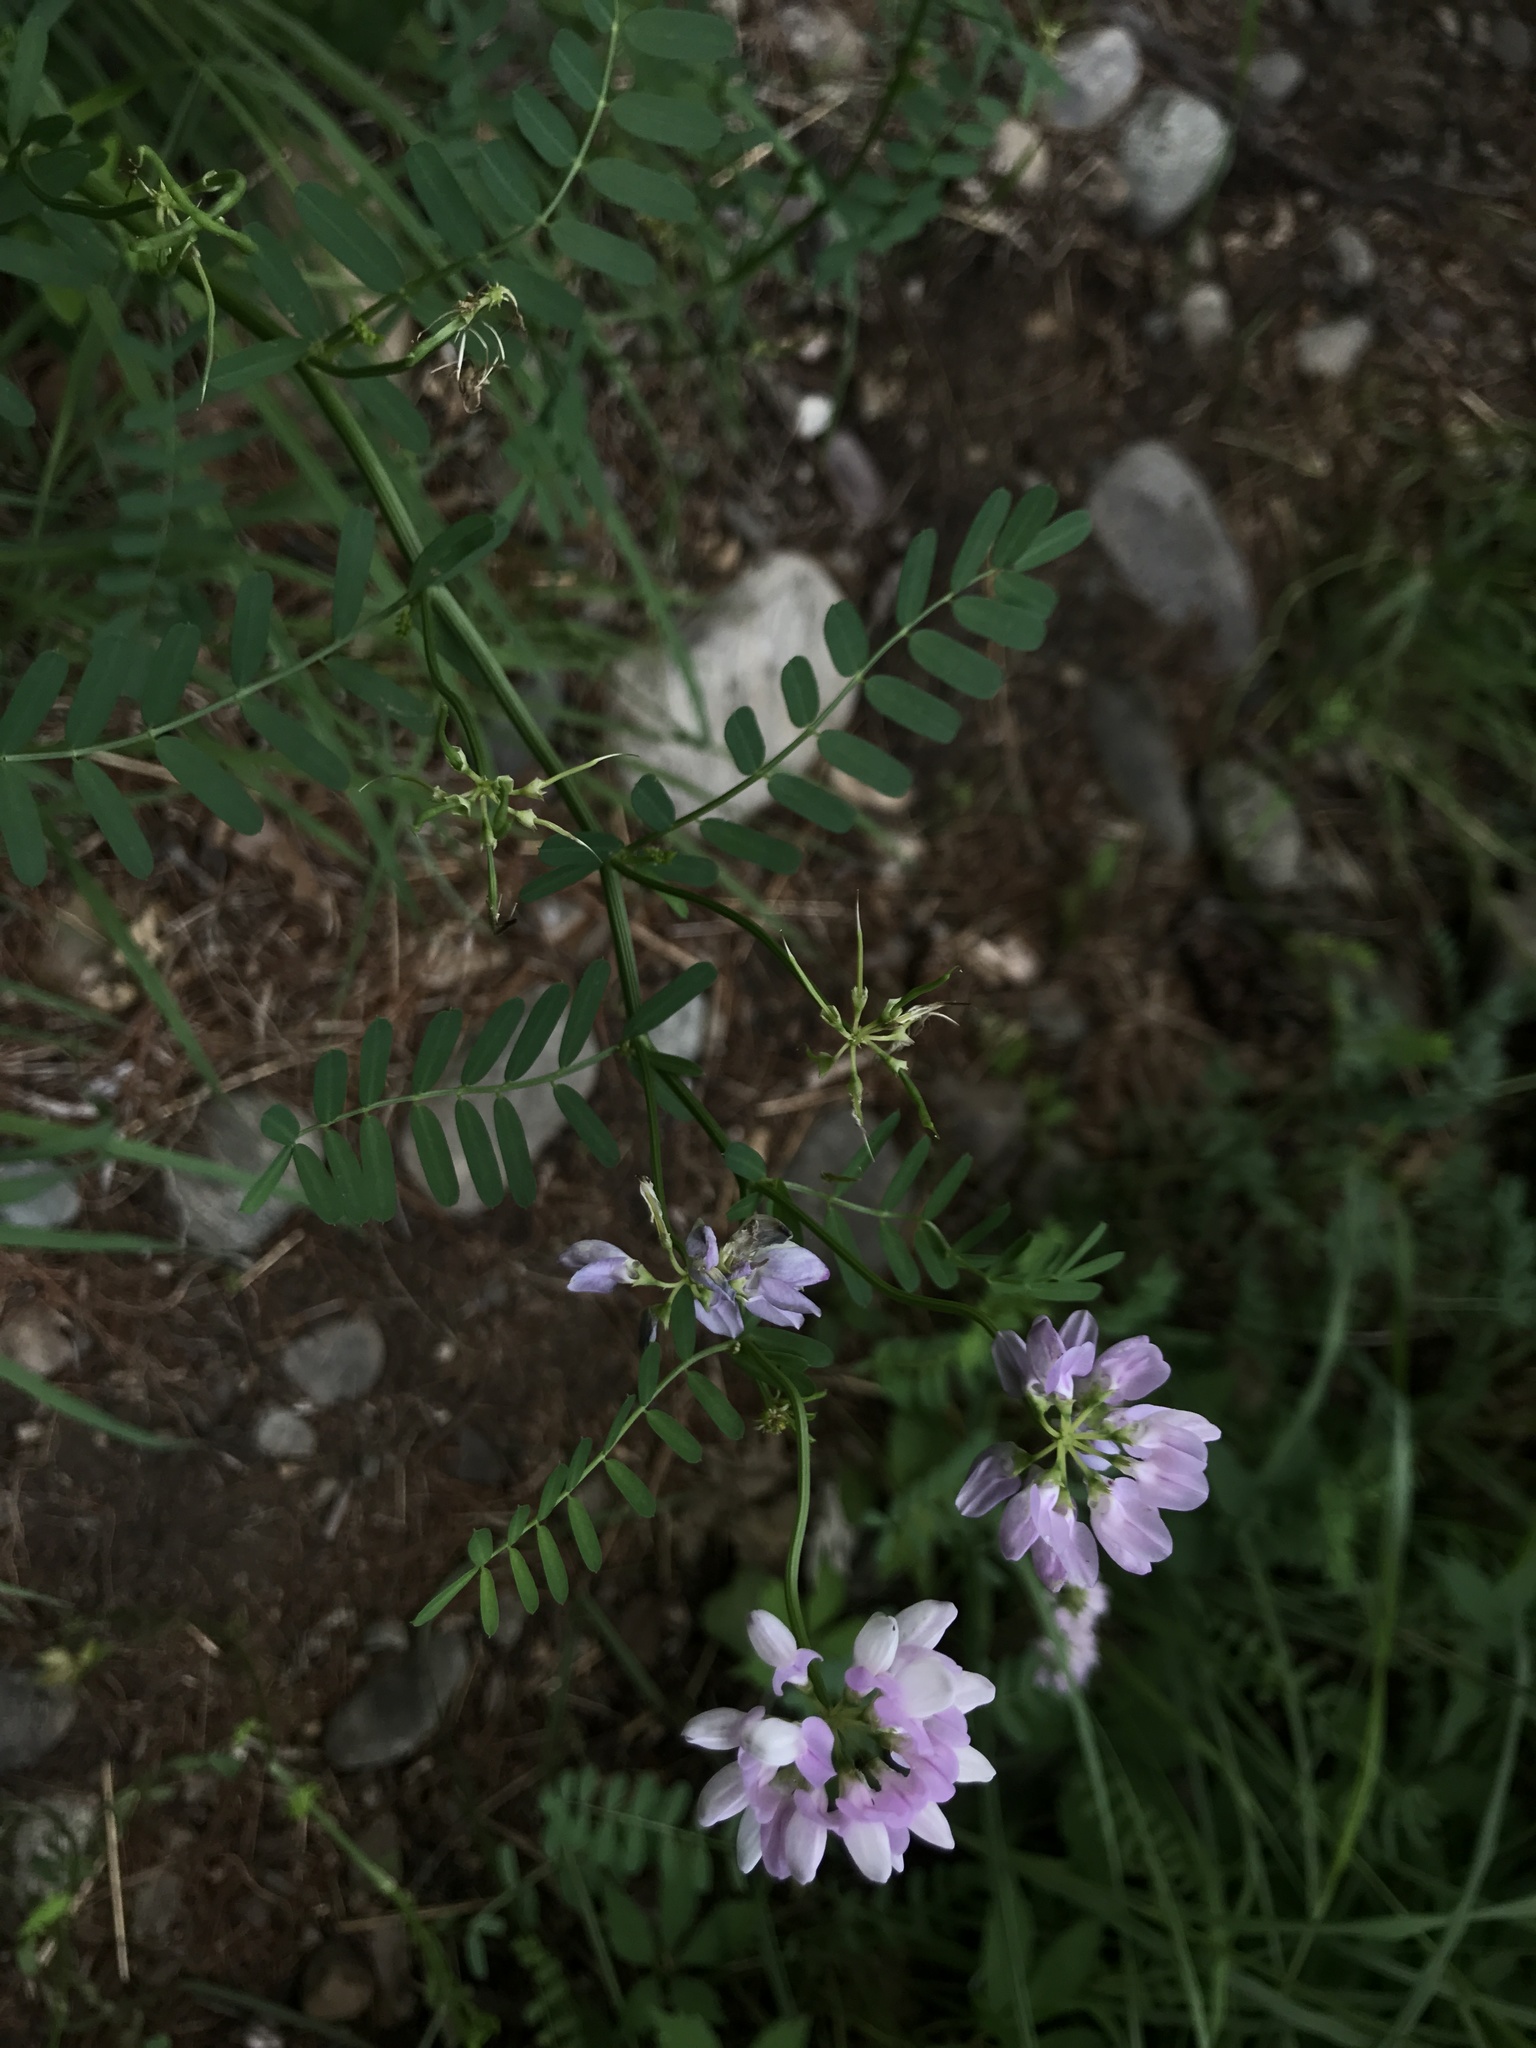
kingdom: Plantae
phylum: Tracheophyta
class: Magnoliopsida
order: Fabales
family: Fabaceae
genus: Coronilla
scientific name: Coronilla varia
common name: Crownvetch
